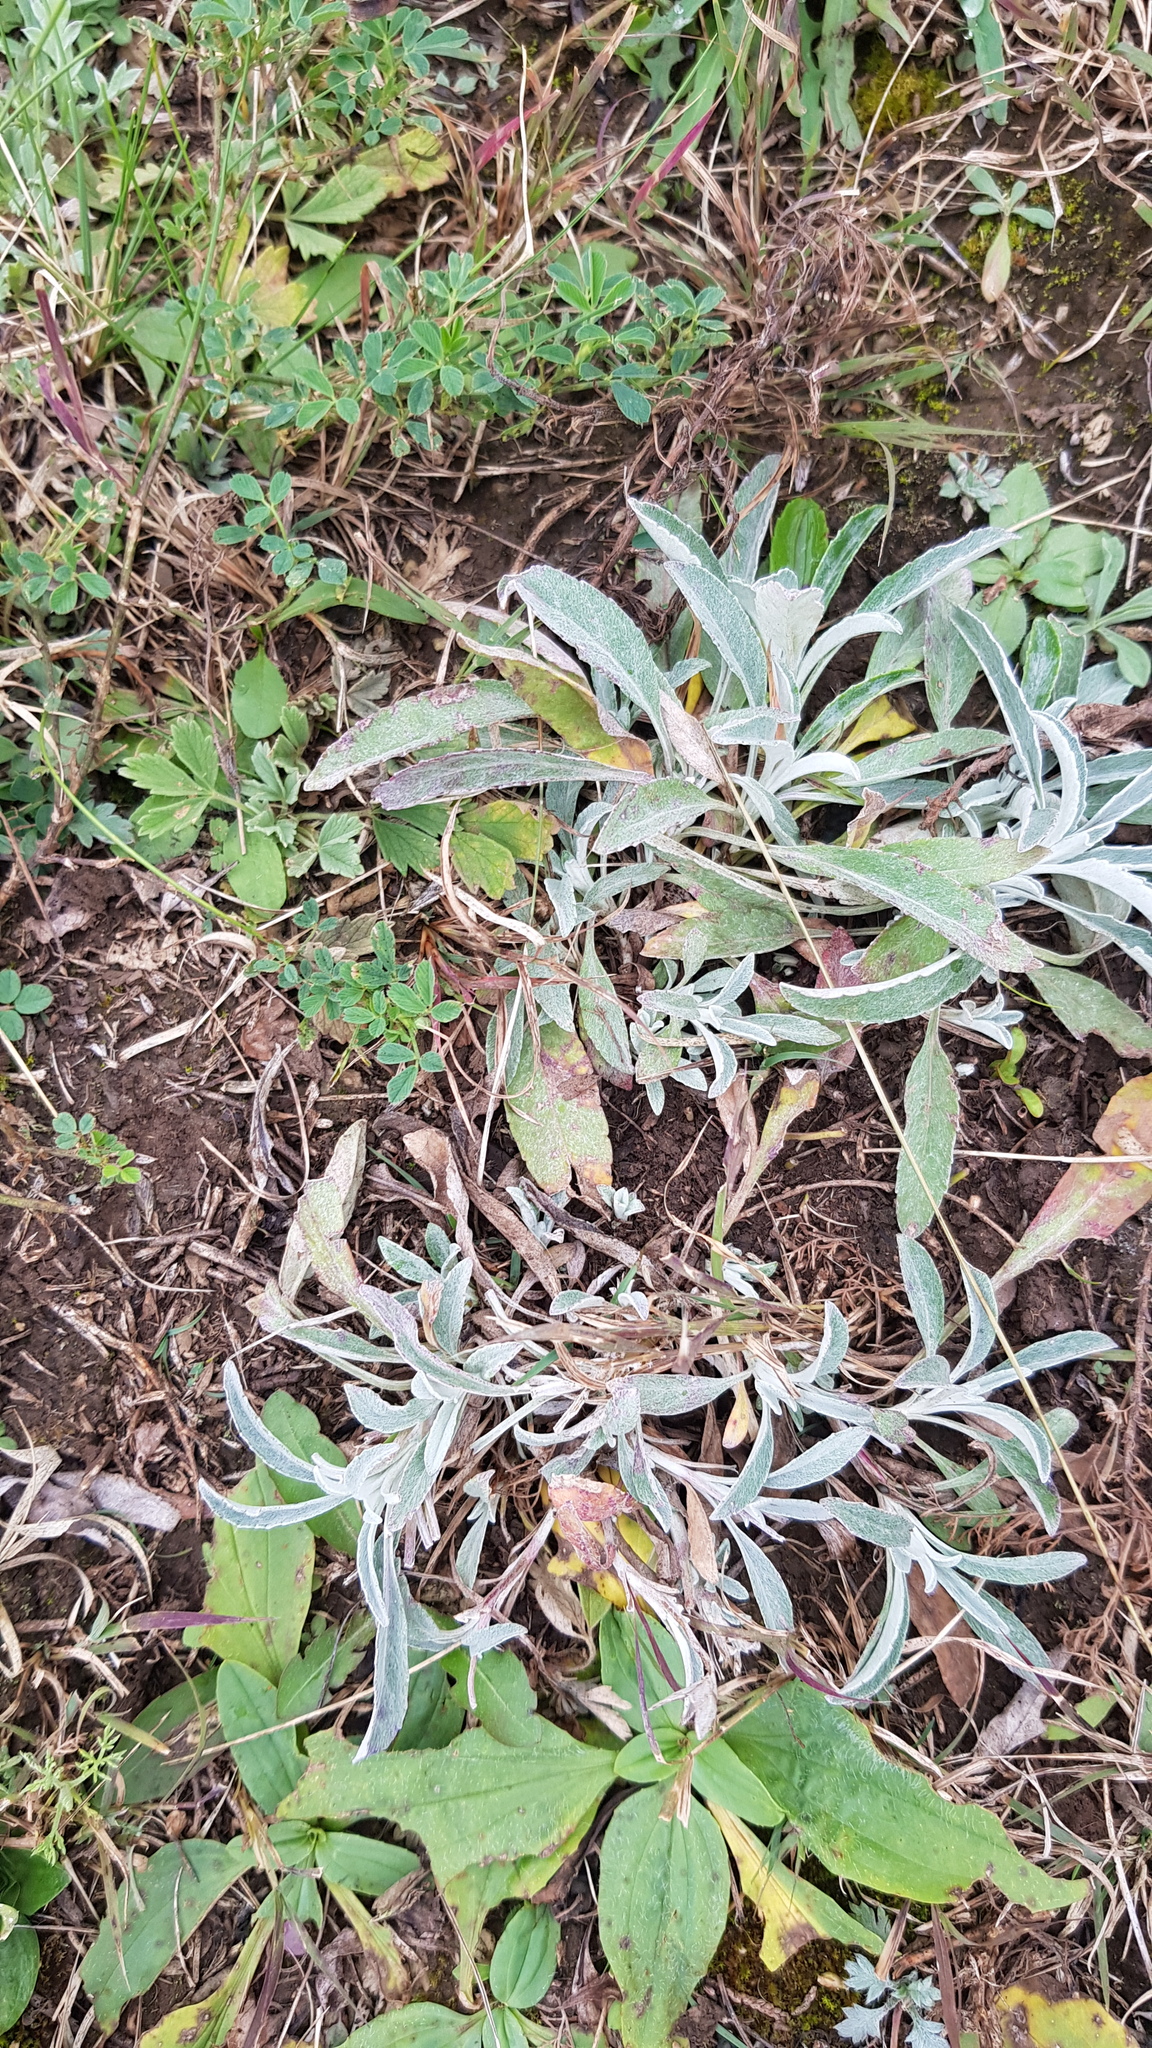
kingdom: Plantae
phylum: Tracheophyta
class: Magnoliopsida
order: Lamiales
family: Plantaginaceae
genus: Veronica
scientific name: Veronica incana
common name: Silver speedwell
